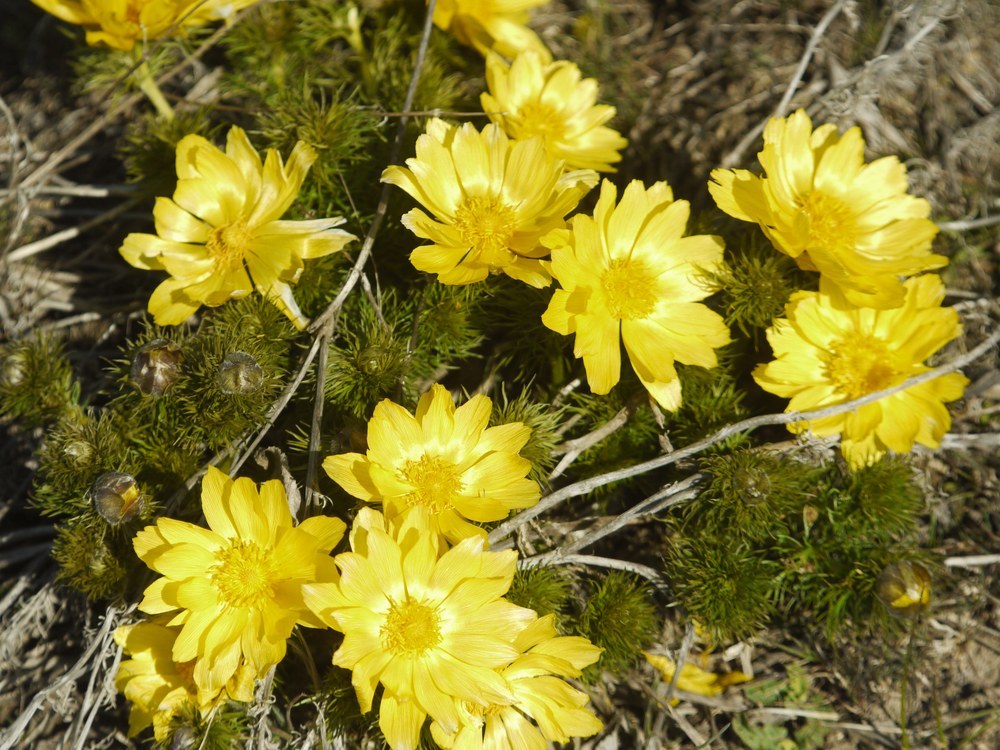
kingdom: Plantae
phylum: Tracheophyta
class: Magnoliopsida
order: Ranunculales
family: Ranunculaceae
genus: Adonis
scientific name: Adonis vernalis
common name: Yellow pheasants-eye
